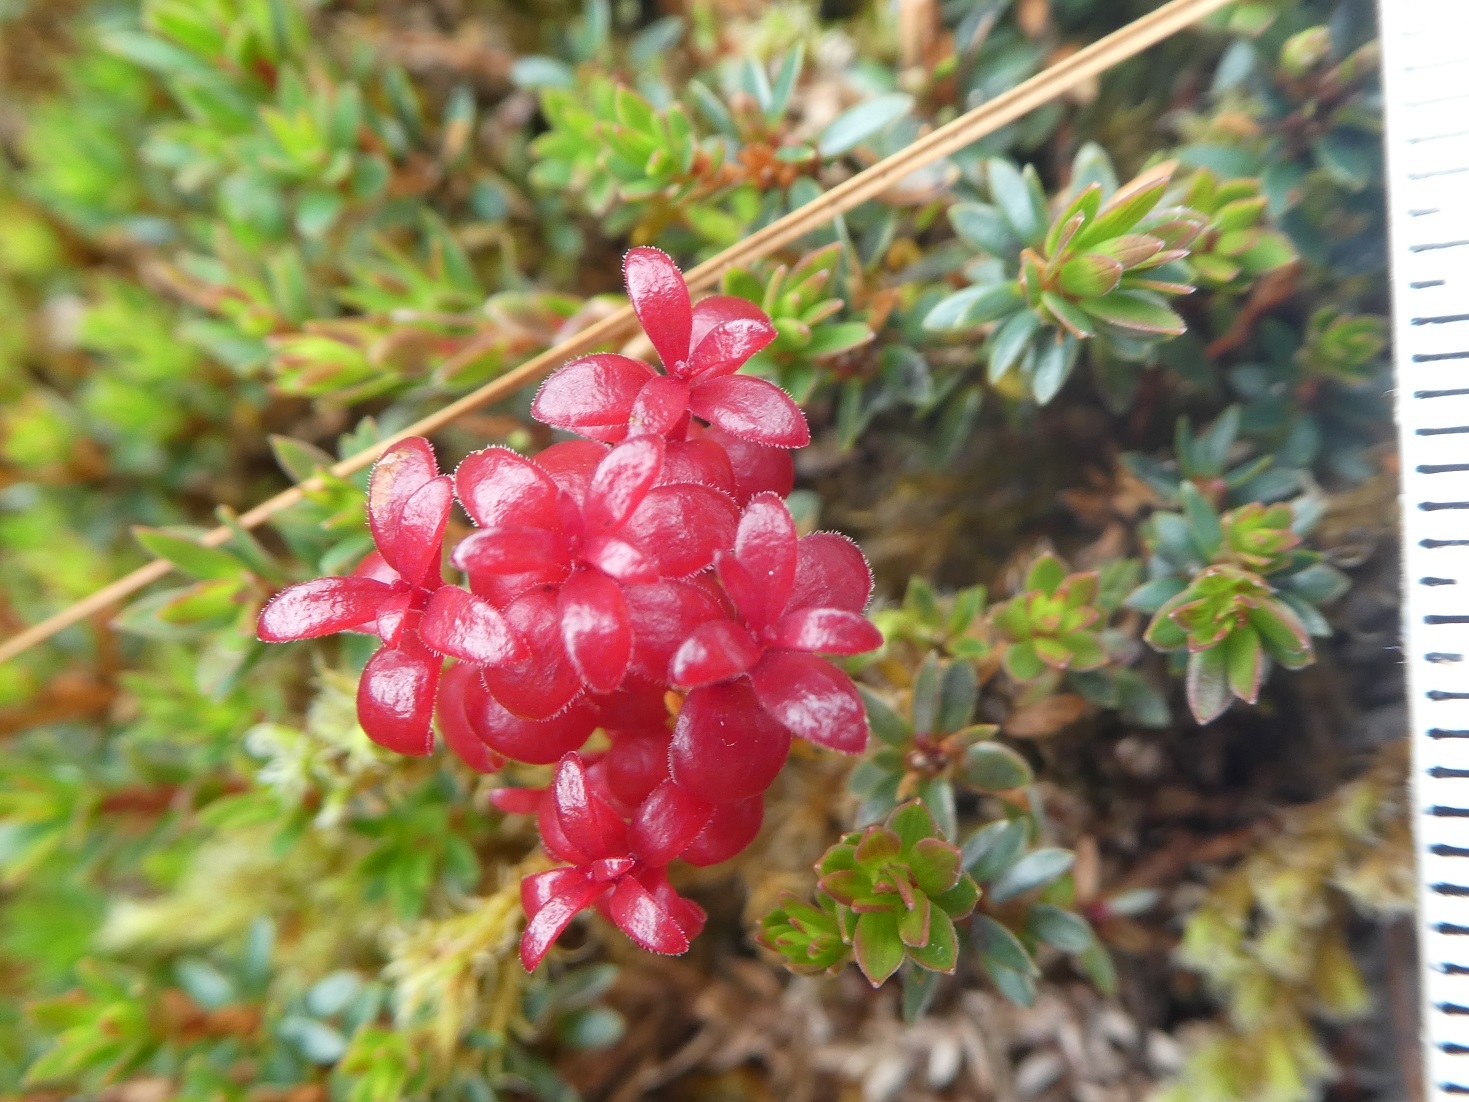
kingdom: Plantae
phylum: Tracheophyta
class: Magnoliopsida
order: Ericales
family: Ericaceae
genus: Pentachondra
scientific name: Pentachondra pumila
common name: Carpet-heath
